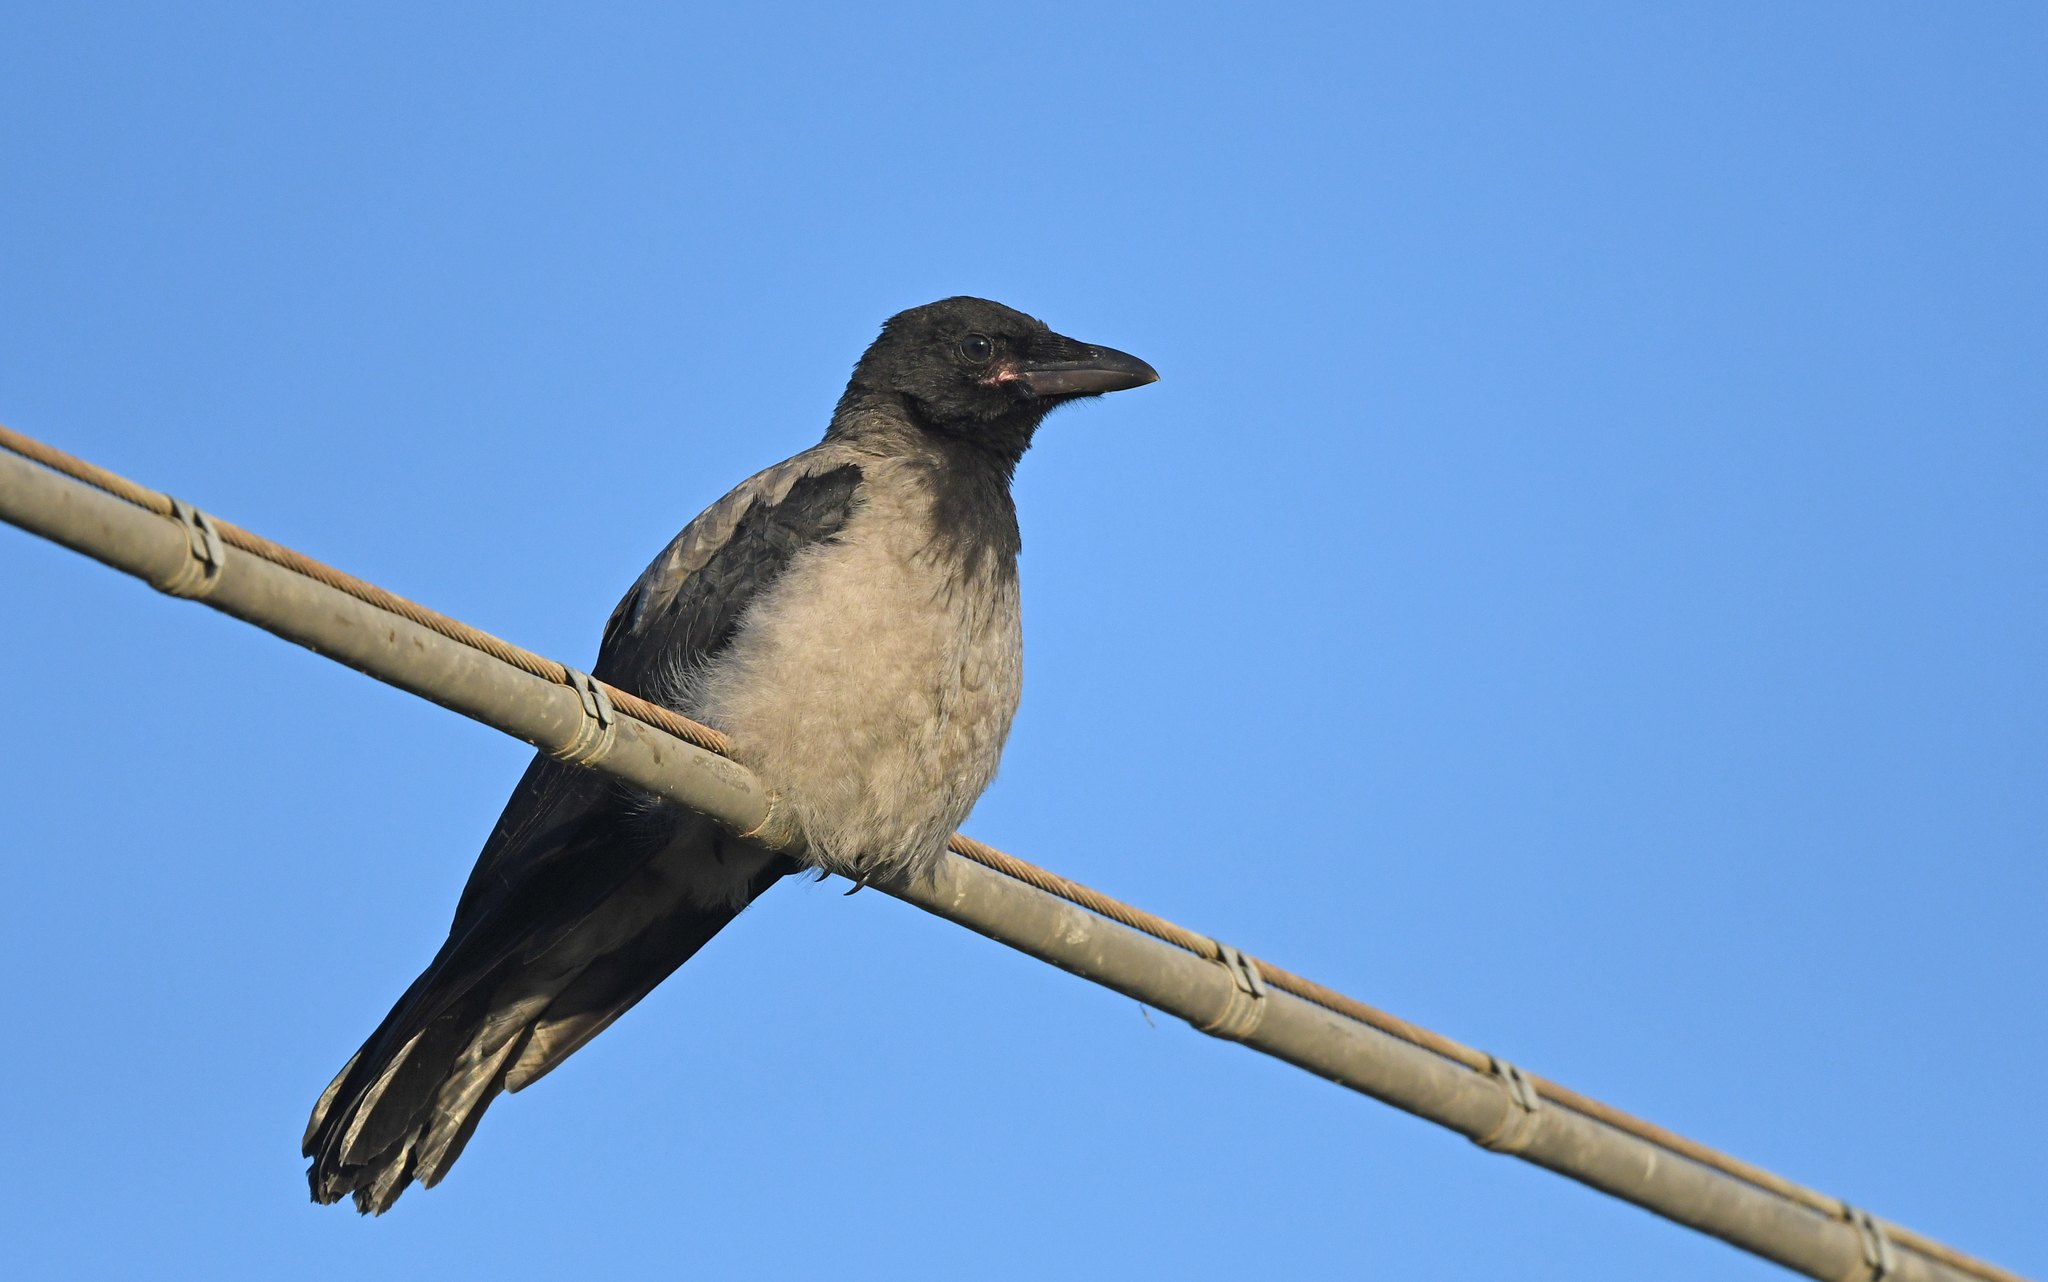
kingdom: Animalia
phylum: Chordata
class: Aves
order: Passeriformes
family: Corvidae
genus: Corvus
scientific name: Corvus cornix
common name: Hooded crow
